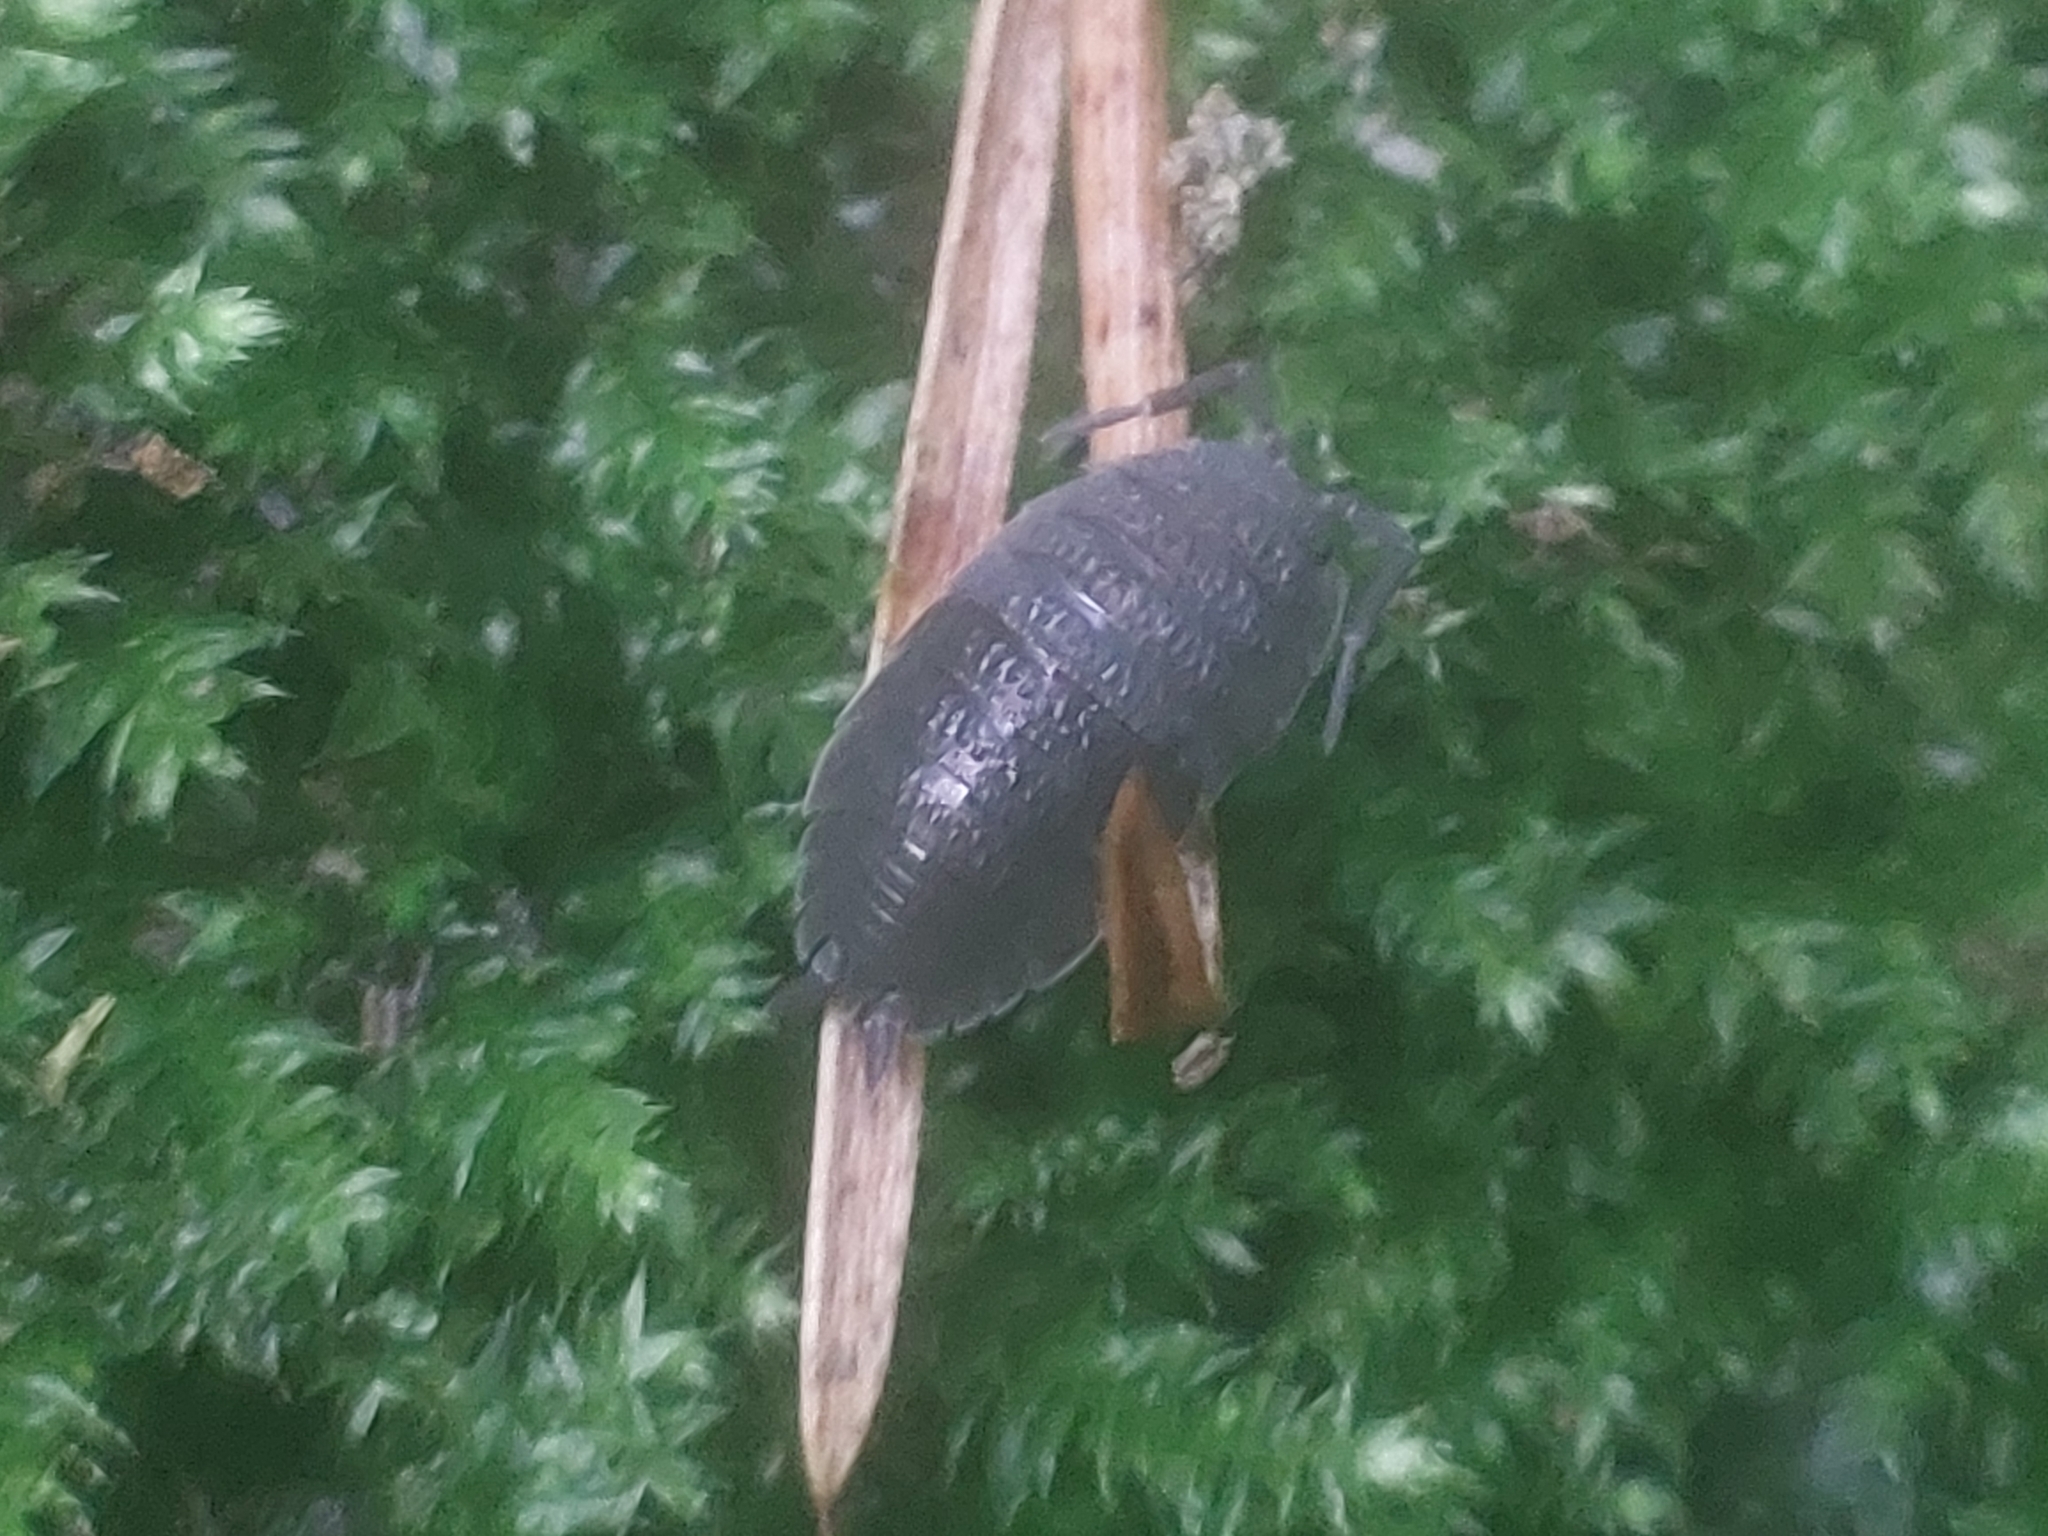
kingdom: Animalia
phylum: Arthropoda
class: Malacostraca
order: Isopoda
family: Porcellionidae
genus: Porcellio
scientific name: Porcellio scaber
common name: Common rough woodlouse
